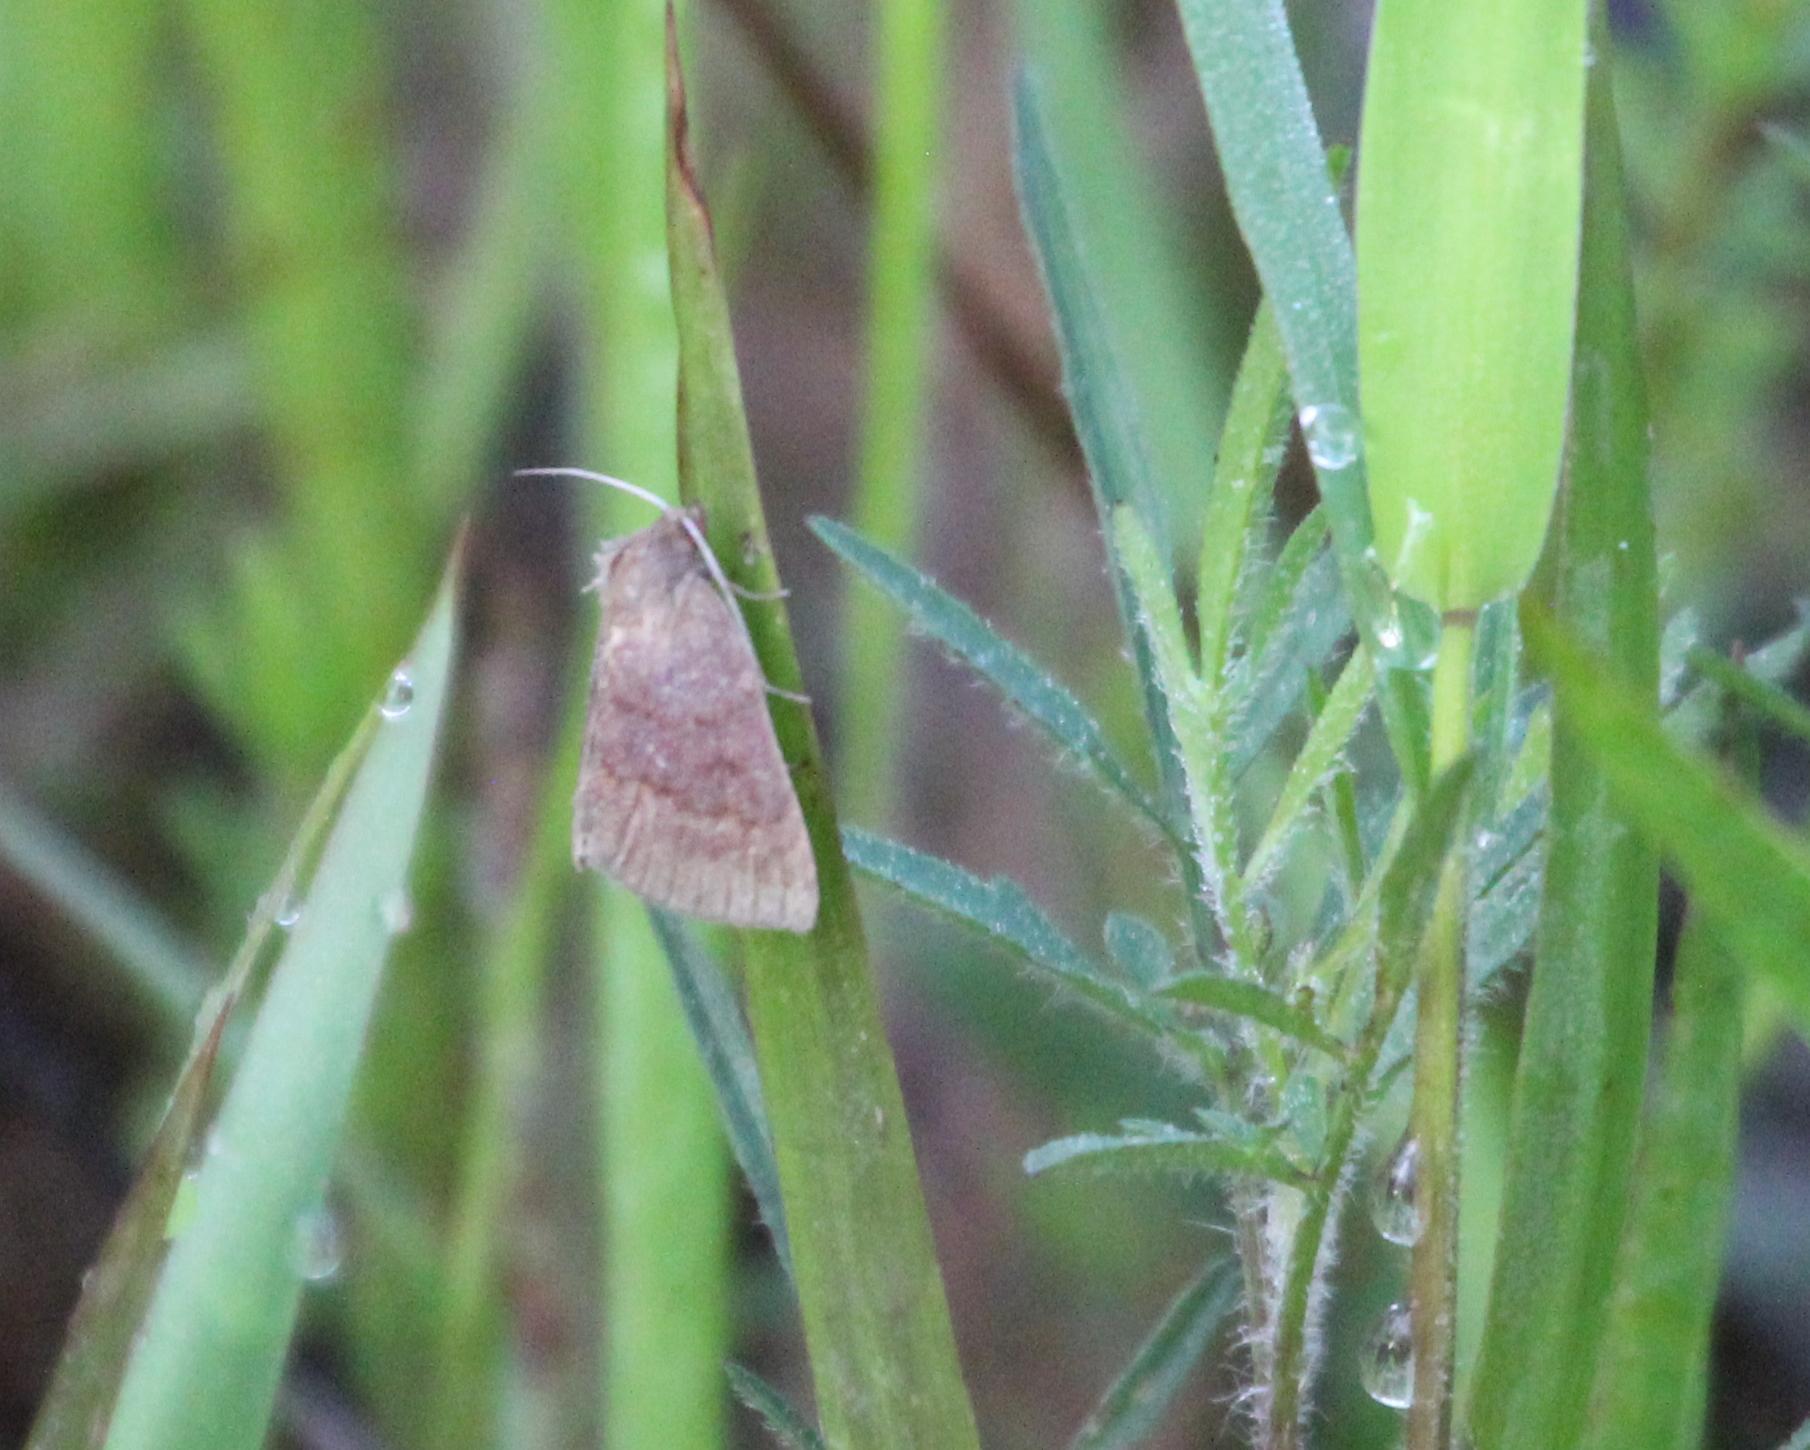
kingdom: Animalia
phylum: Arthropoda
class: Insecta
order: Lepidoptera
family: Erebidae
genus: Argyrostrotis
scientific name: Argyrostrotis deleta
